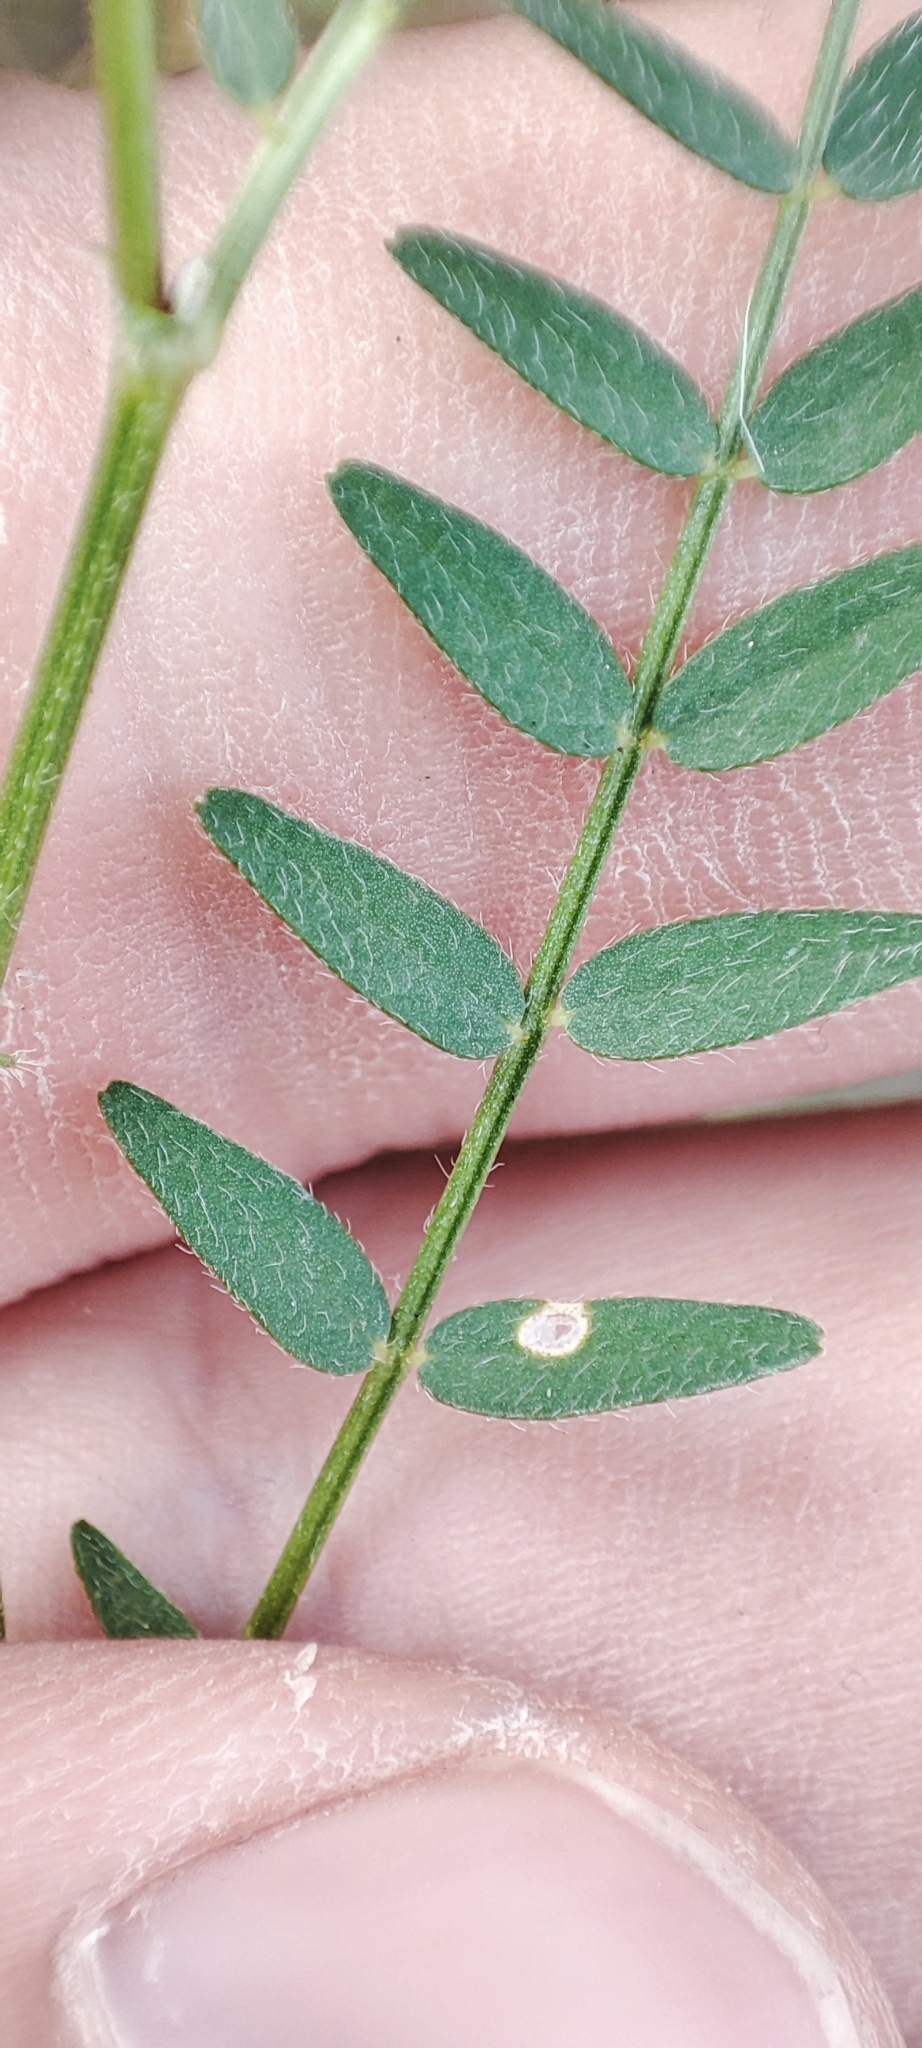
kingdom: Plantae
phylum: Tracheophyta
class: Magnoliopsida
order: Fabales
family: Fabaceae
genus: Astragalus
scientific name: Astragalus danicus
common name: Purple milk-vetch
